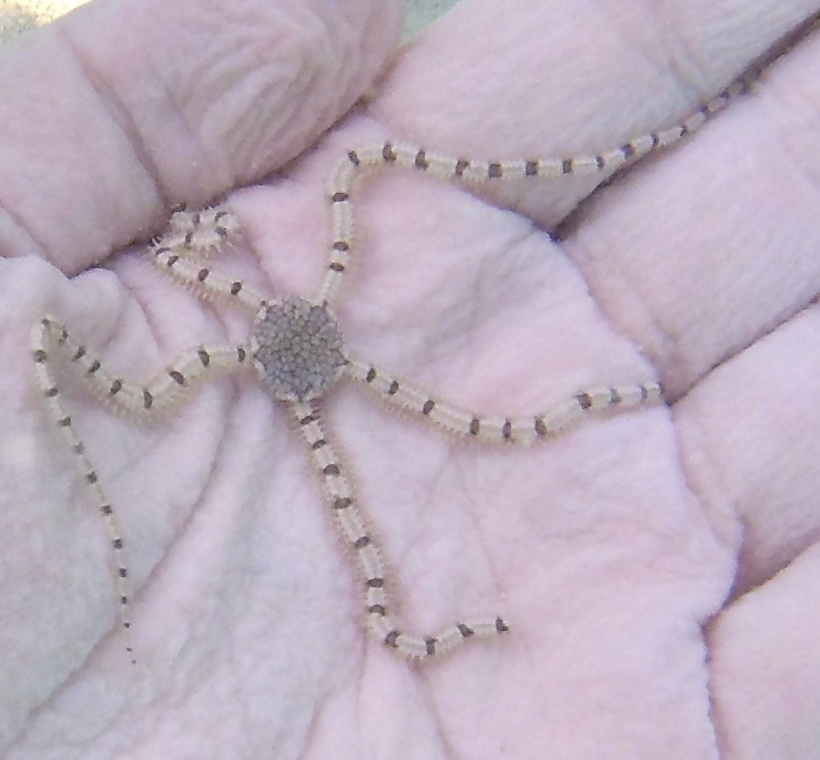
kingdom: Animalia
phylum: Echinodermata
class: Ophiuroidea
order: Amphilepidida
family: Ophionereididae
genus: Ophionereis
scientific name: Ophionereis reticulata
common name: Reticulate brittle star
